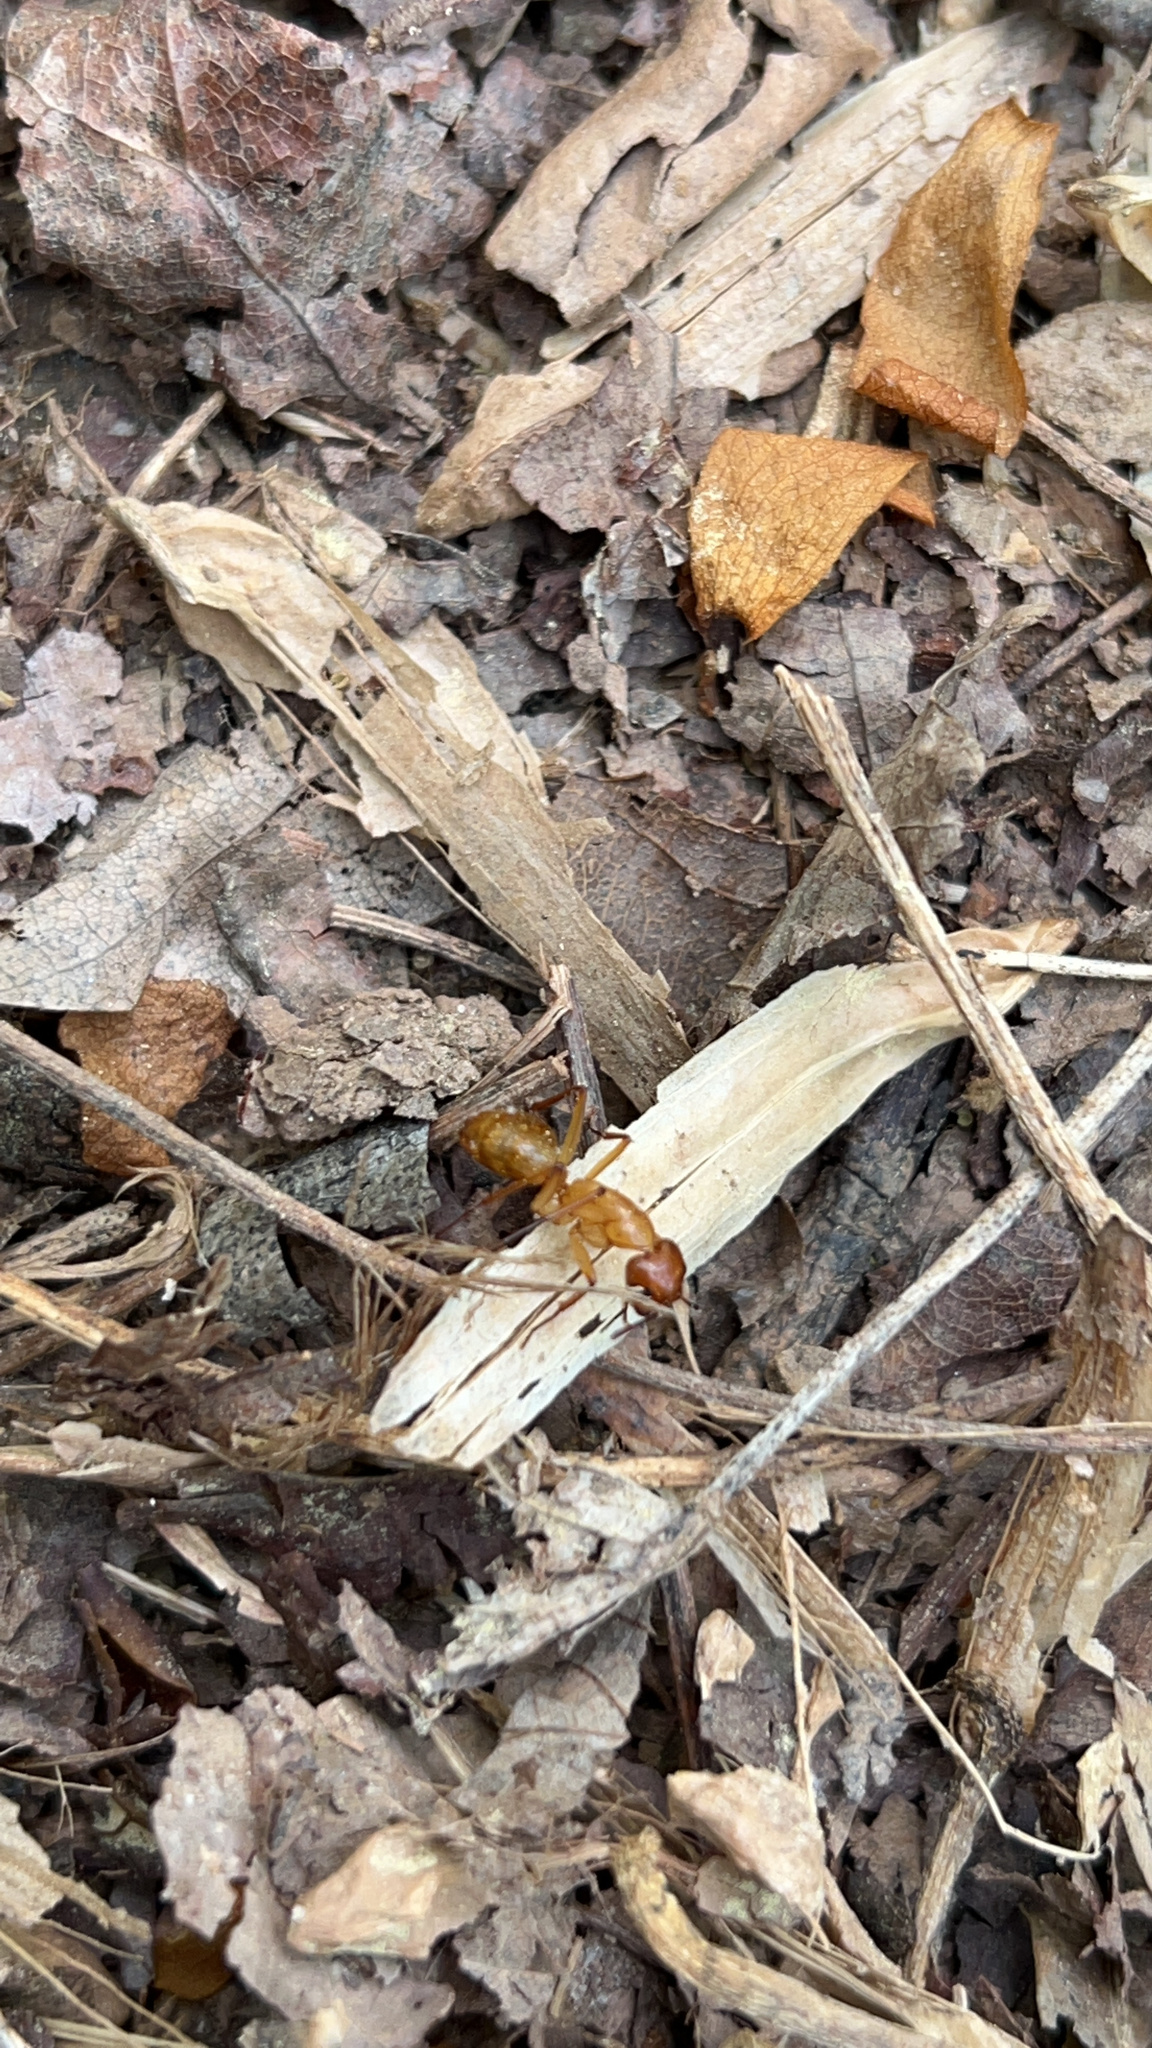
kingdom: Animalia
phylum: Arthropoda
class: Insecta
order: Hymenoptera
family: Formicidae
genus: Camponotus
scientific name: Camponotus castaneus
